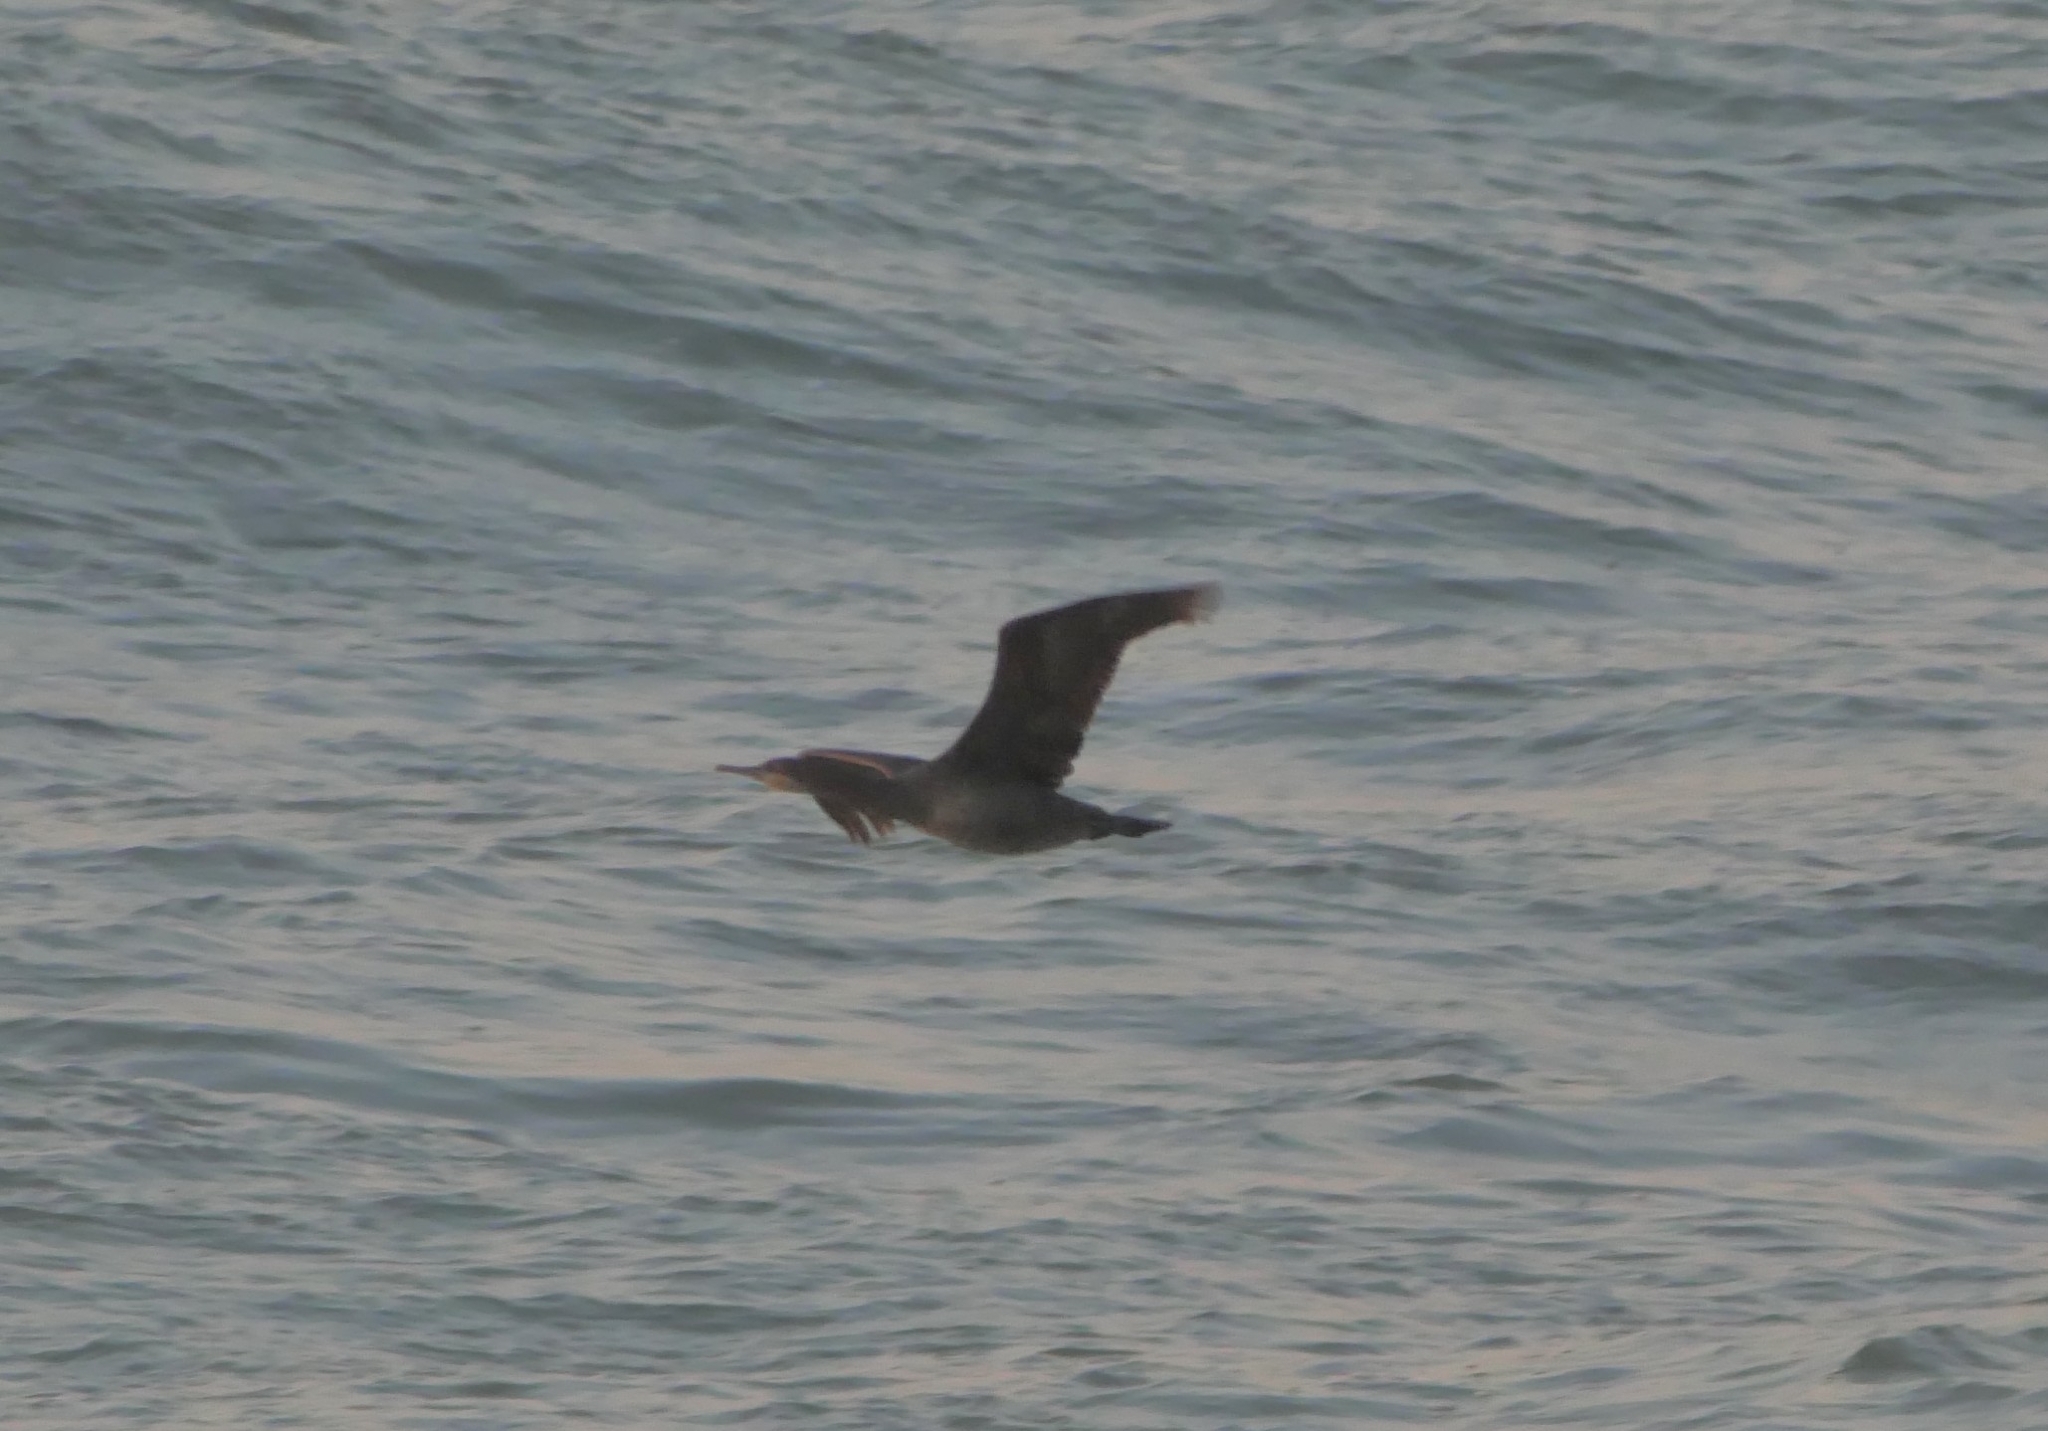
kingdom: Animalia
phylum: Chordata
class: Aves
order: Suliformes
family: Phalacrocoracidae
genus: Phalacrocorax
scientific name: Phalacrocorax capensis
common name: Cape cormorant
